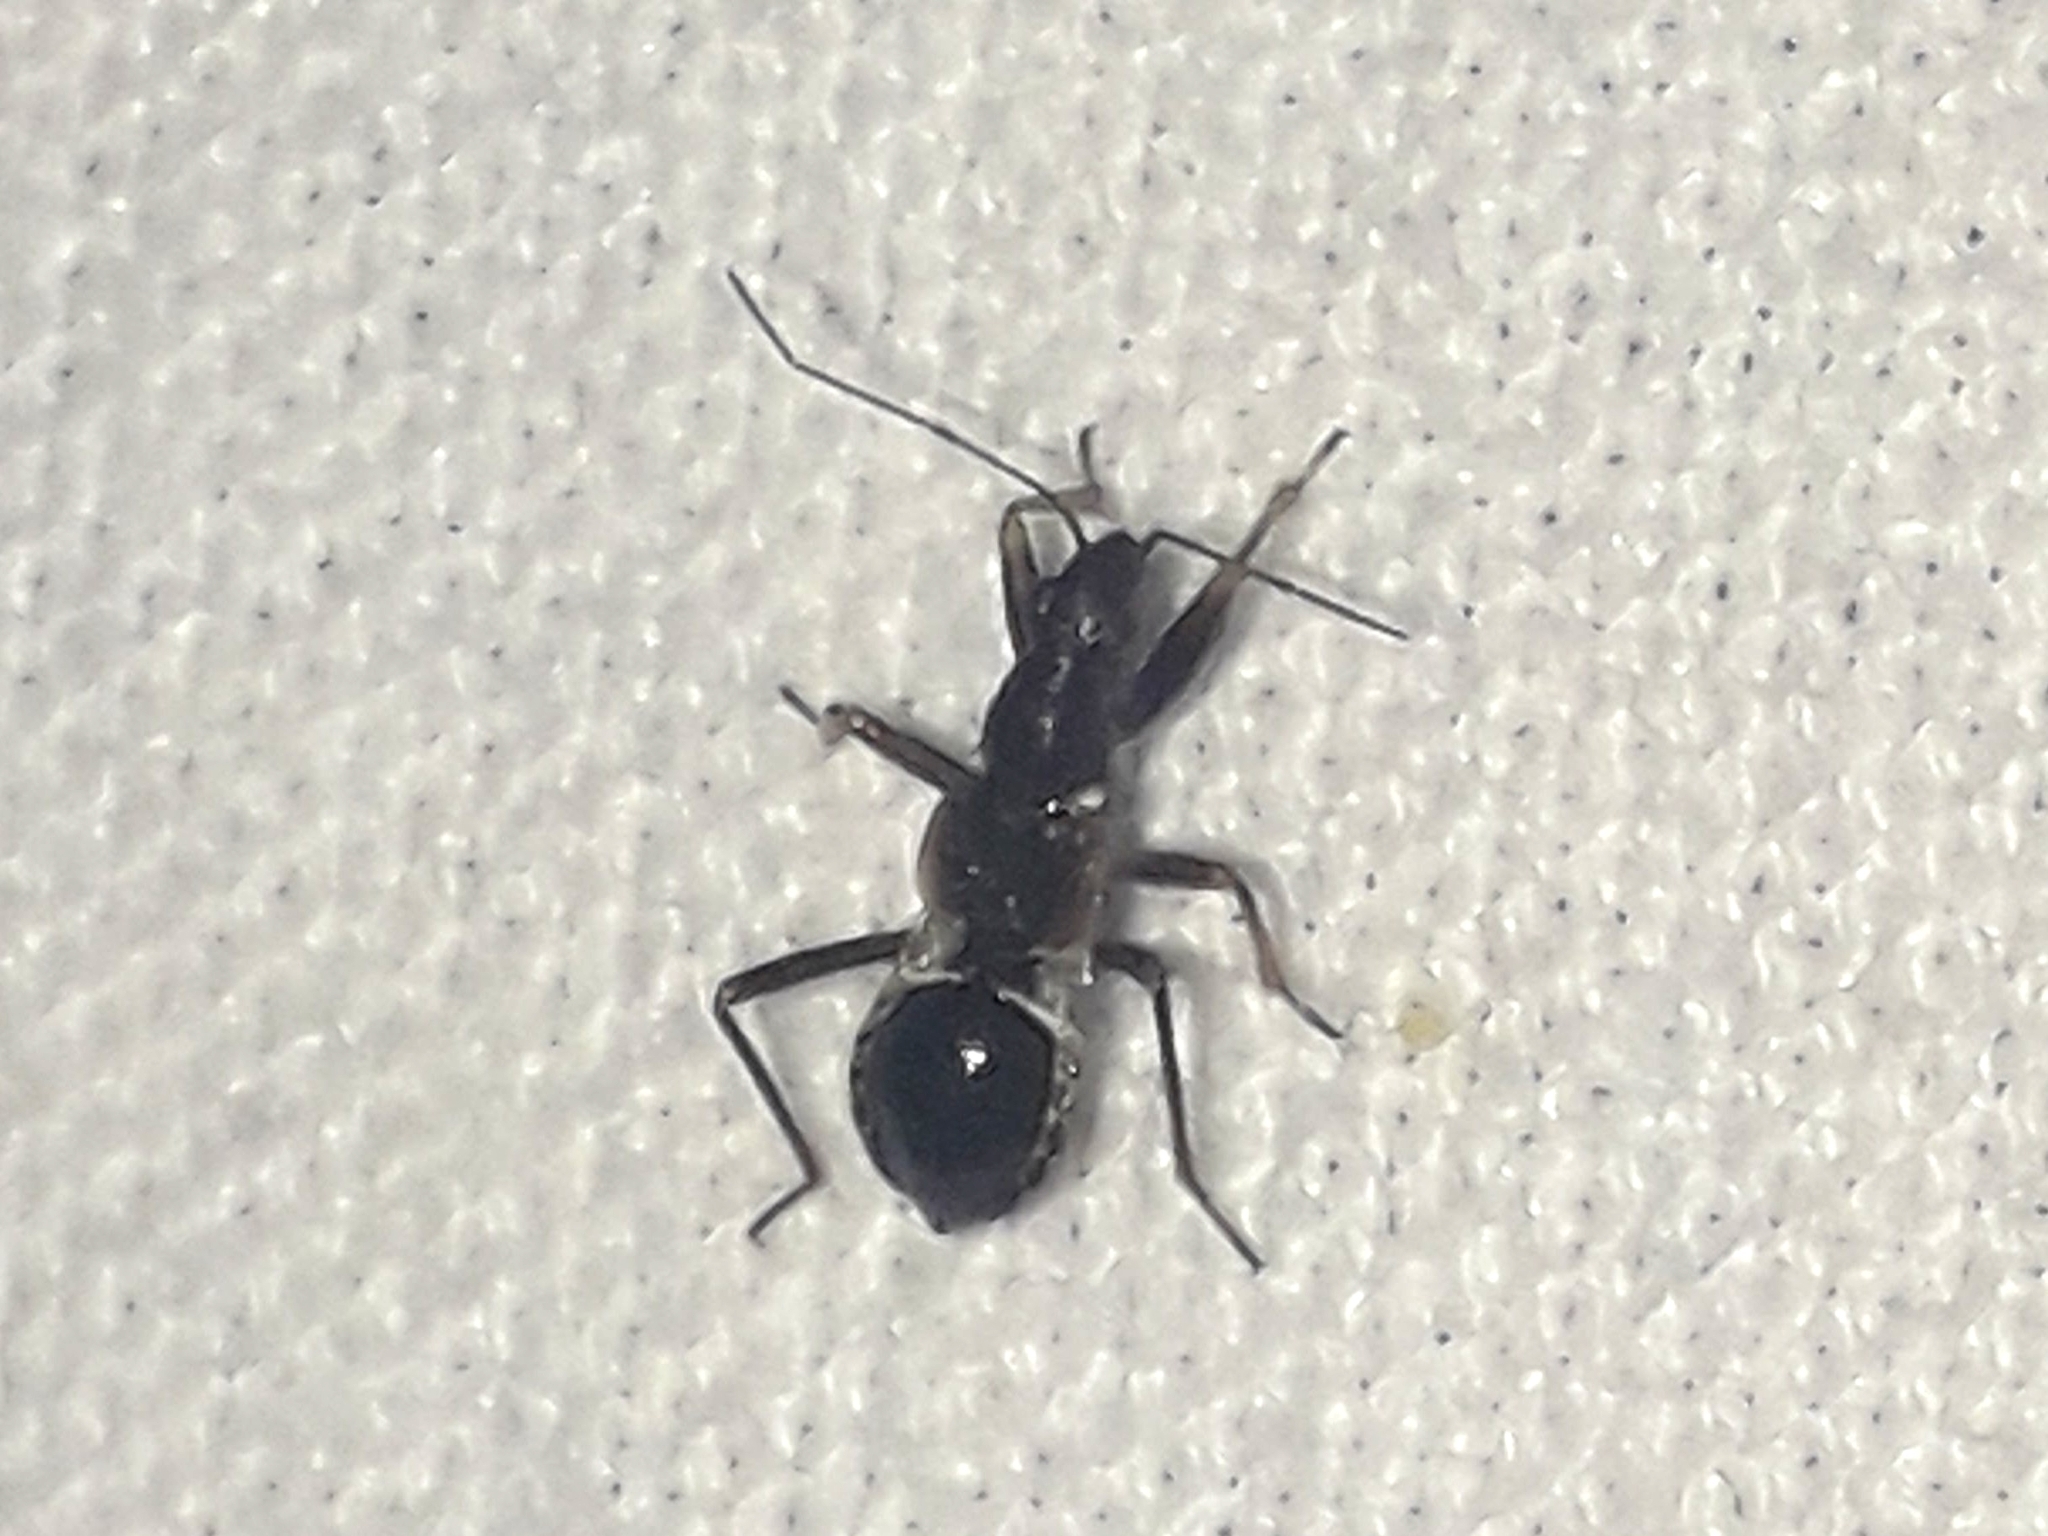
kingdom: Animalia
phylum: Arthropoda
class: Insecta
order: Hemiptera
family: Nabidae
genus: Himacerus
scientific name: Himacerus mirmicoides
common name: Ant damsel bug
